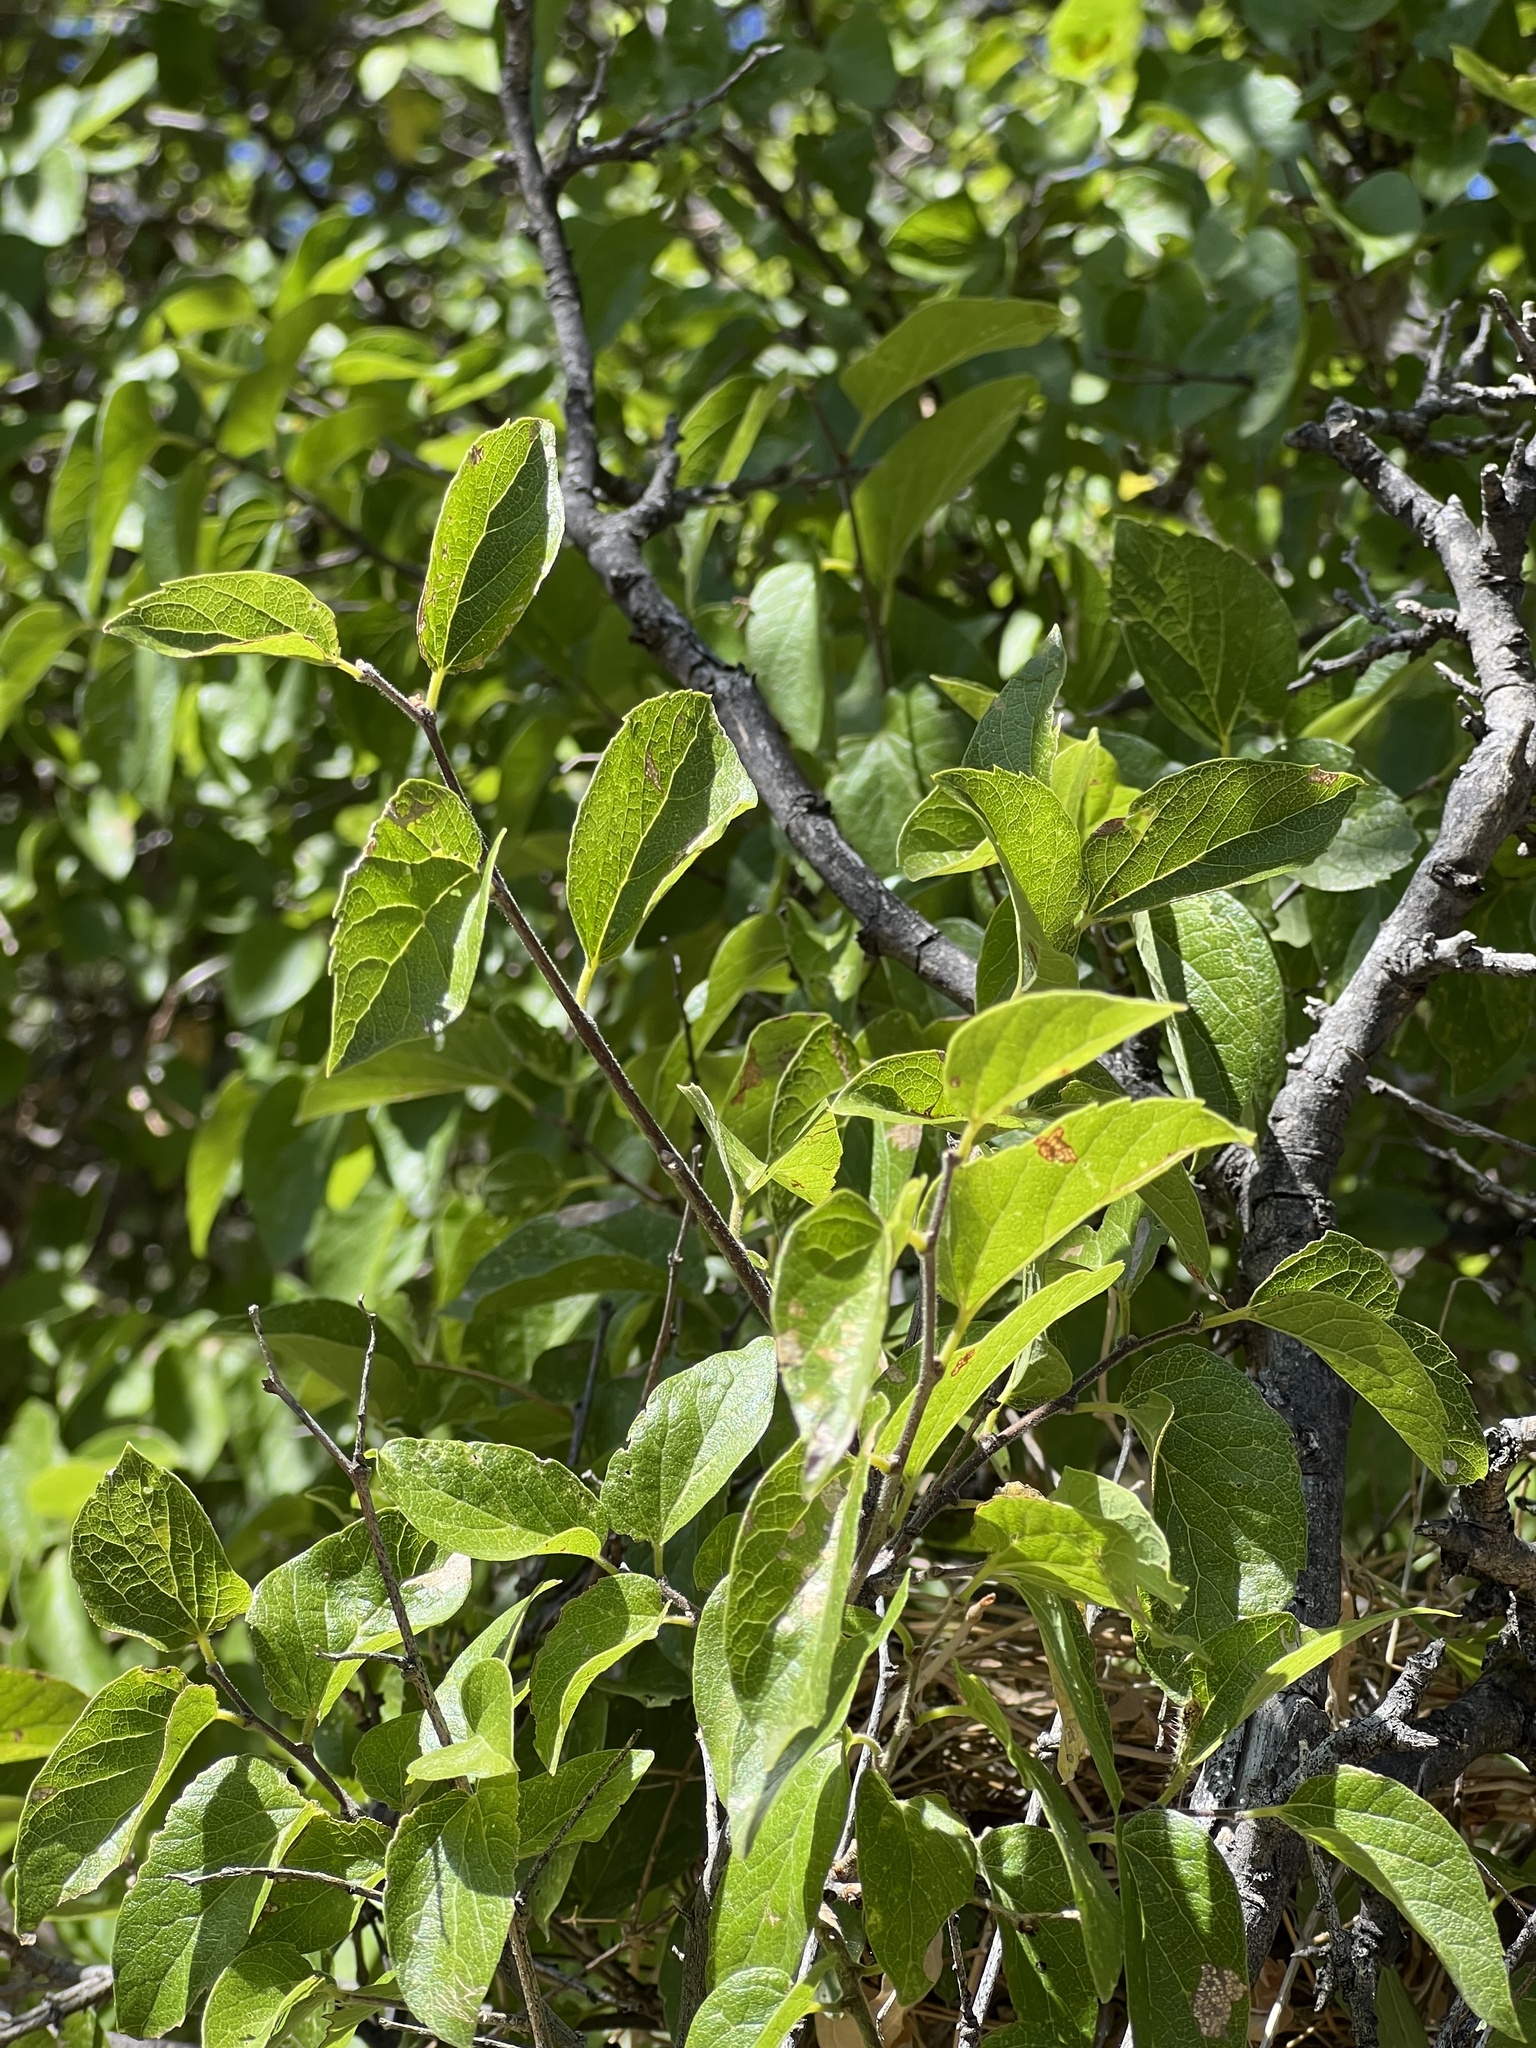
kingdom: Plantae
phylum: Tracheophyta
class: Magnoliopsida
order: Rosales
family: Cannabaceae
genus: Celtis
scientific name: Celtis reticulata
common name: Netleaf hackberry
